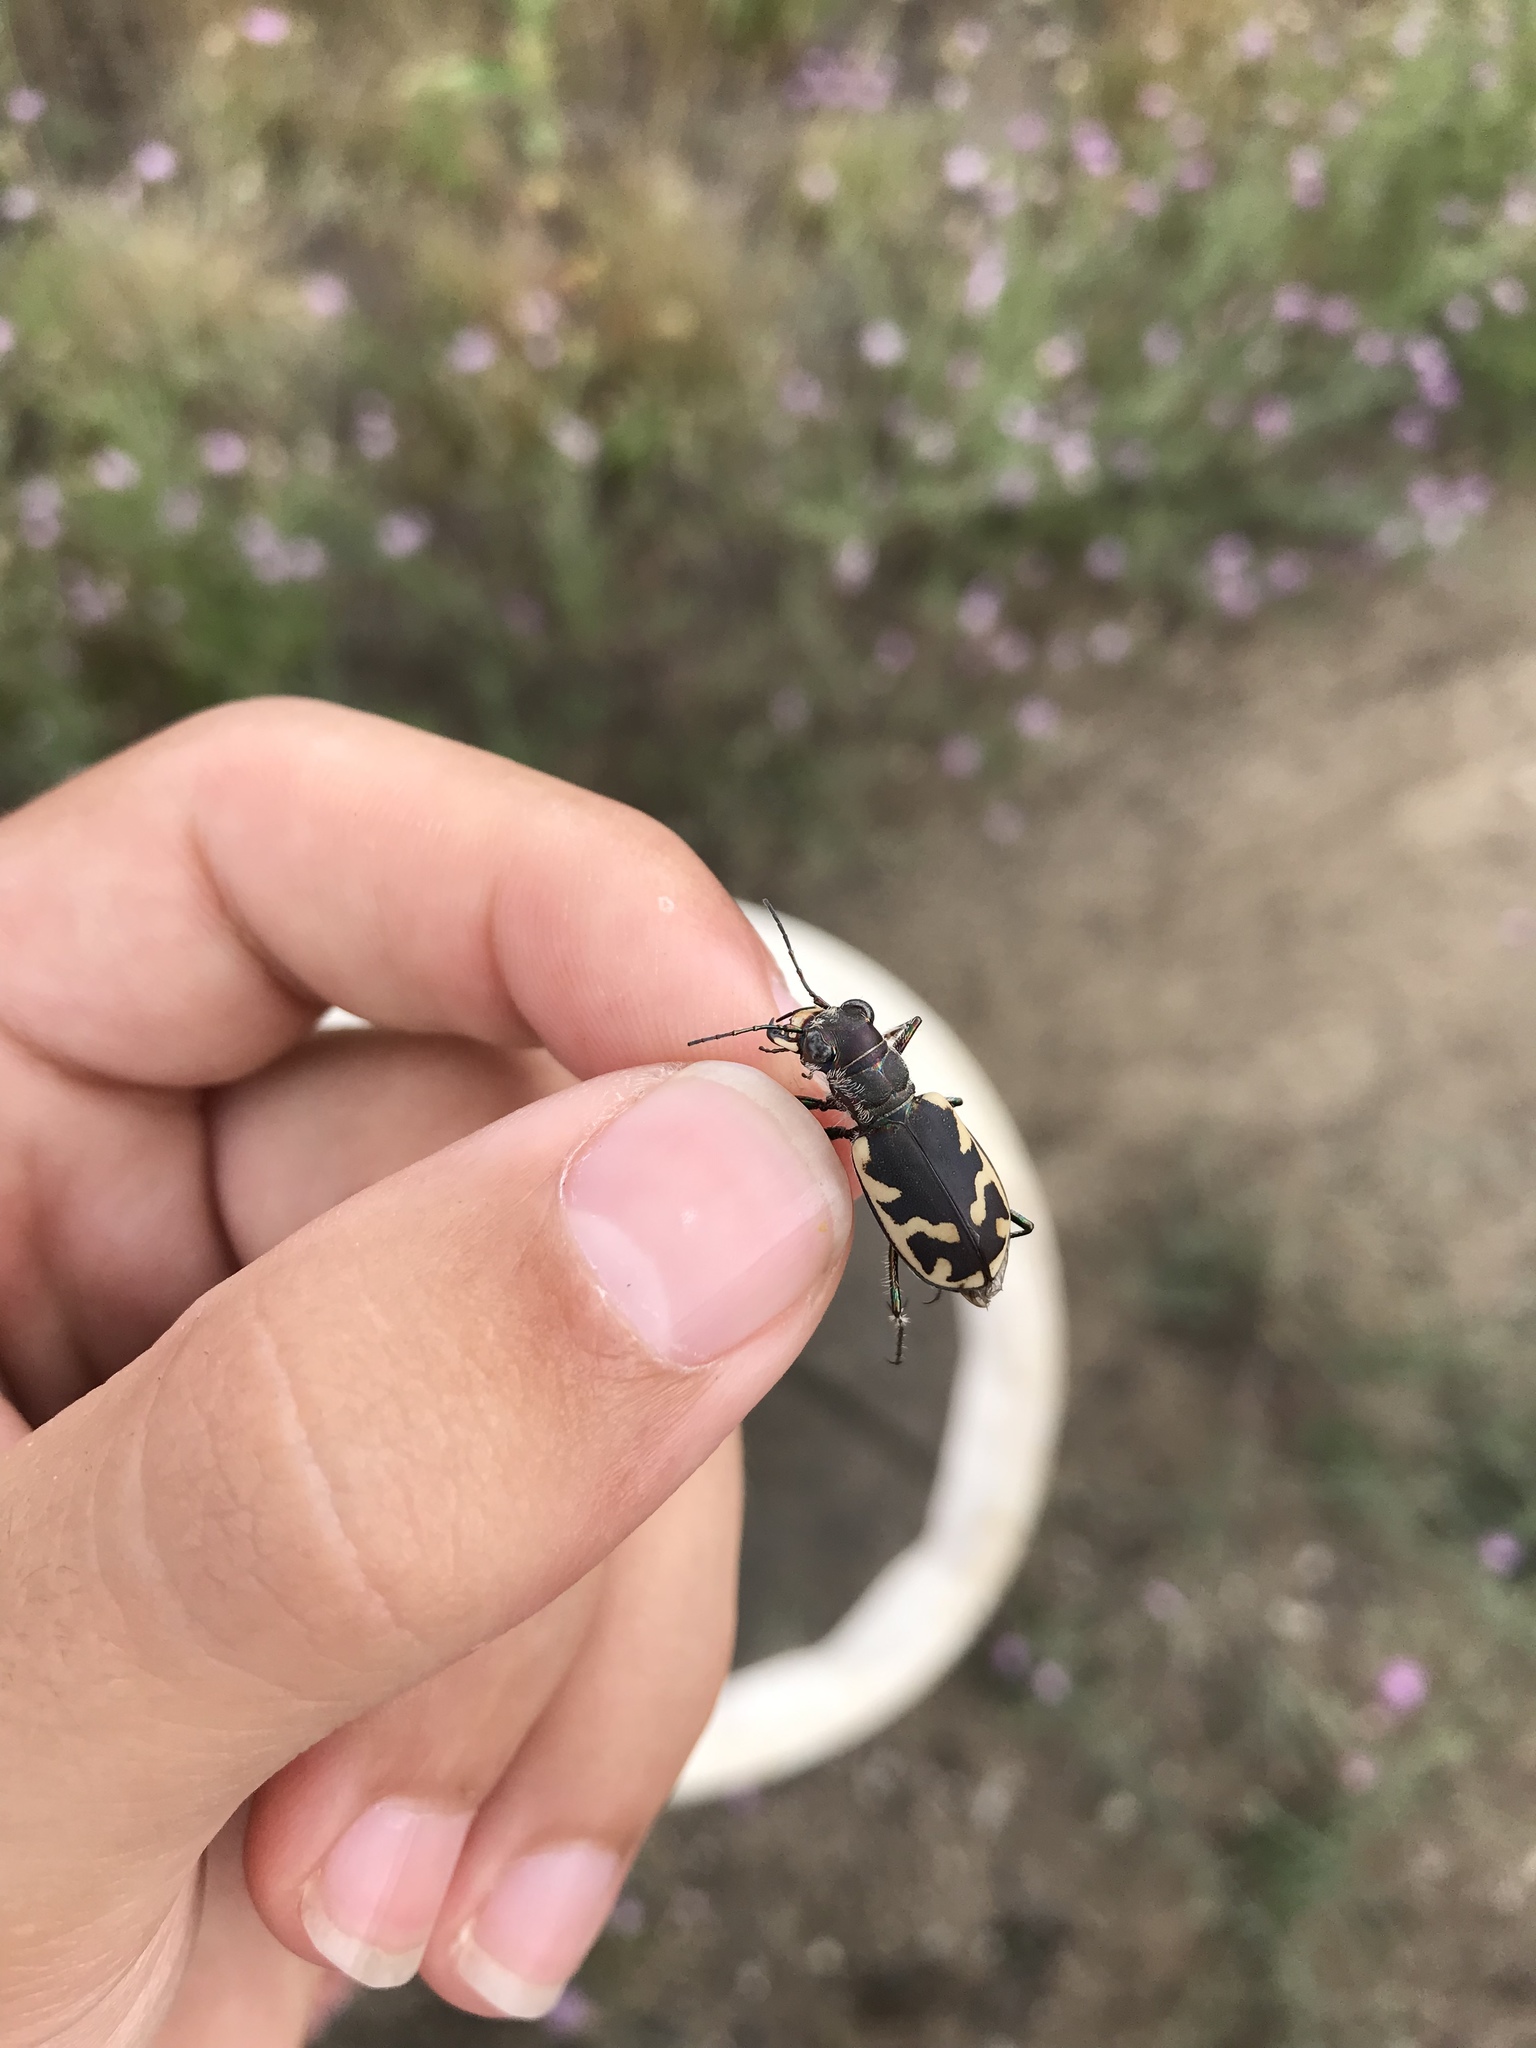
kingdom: Animalia
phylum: Arthropoda
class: Insecta
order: Coleoptera
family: Carabidae
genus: Cicindela
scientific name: Cicindela formosa
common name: Big sand tiger beetle
